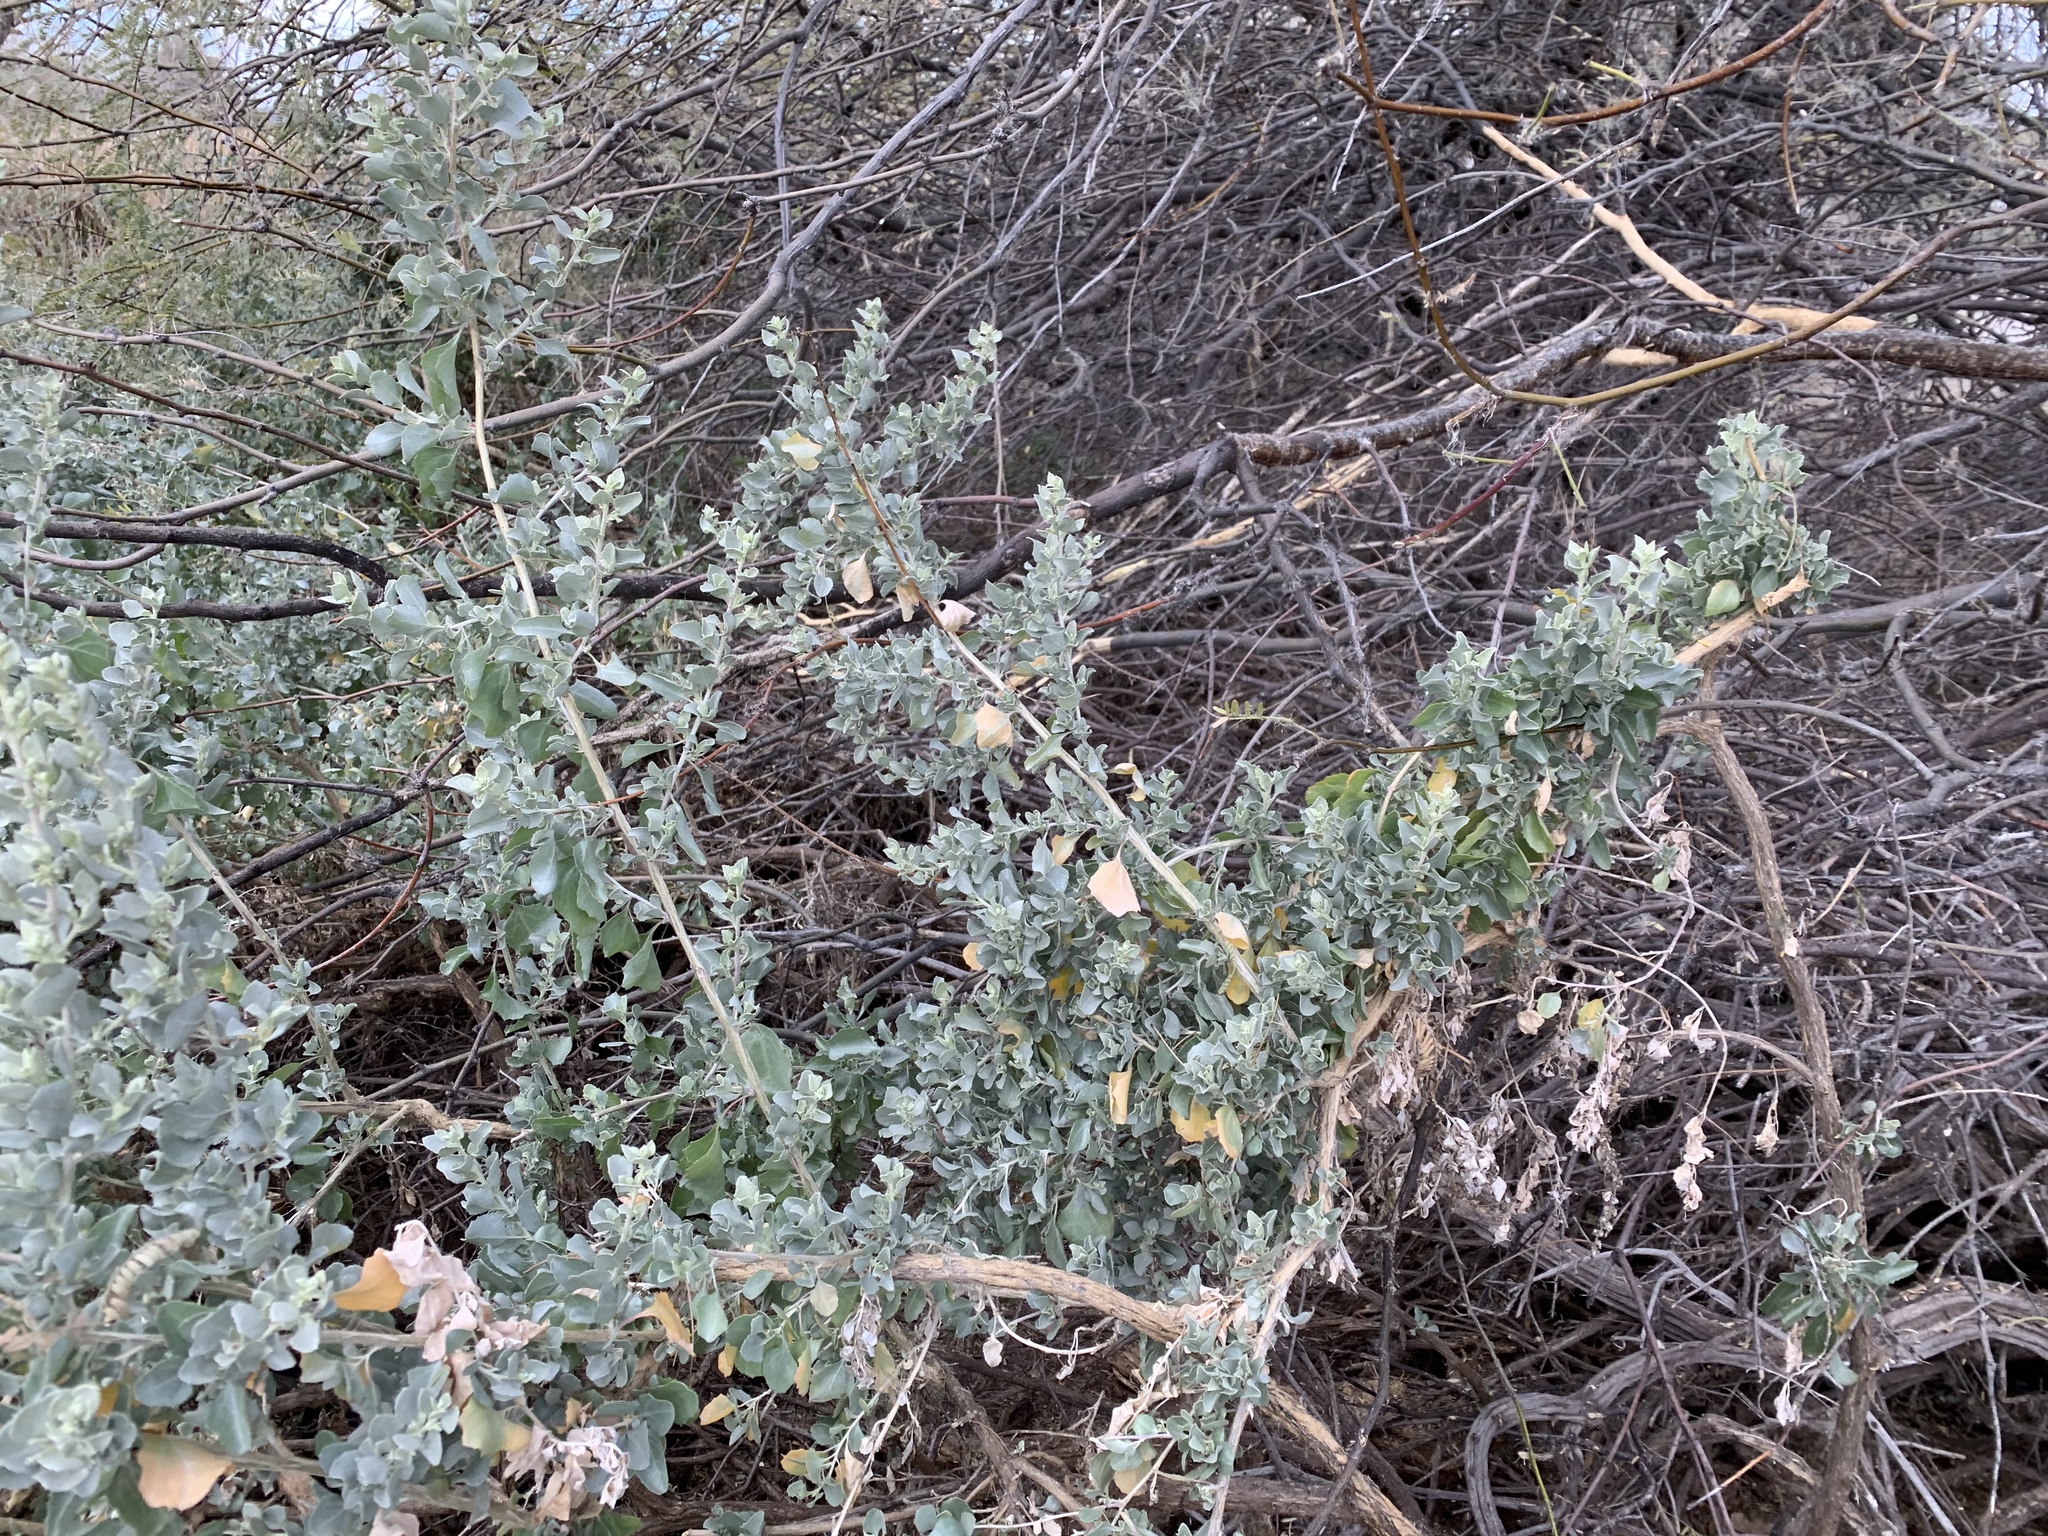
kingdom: Plantae
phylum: Tracheophyta
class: Magnoliopsida
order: Caryophyllales
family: Amaranthaceae
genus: Atriplex
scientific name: Atriplex lentiformis
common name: Big saltbush
